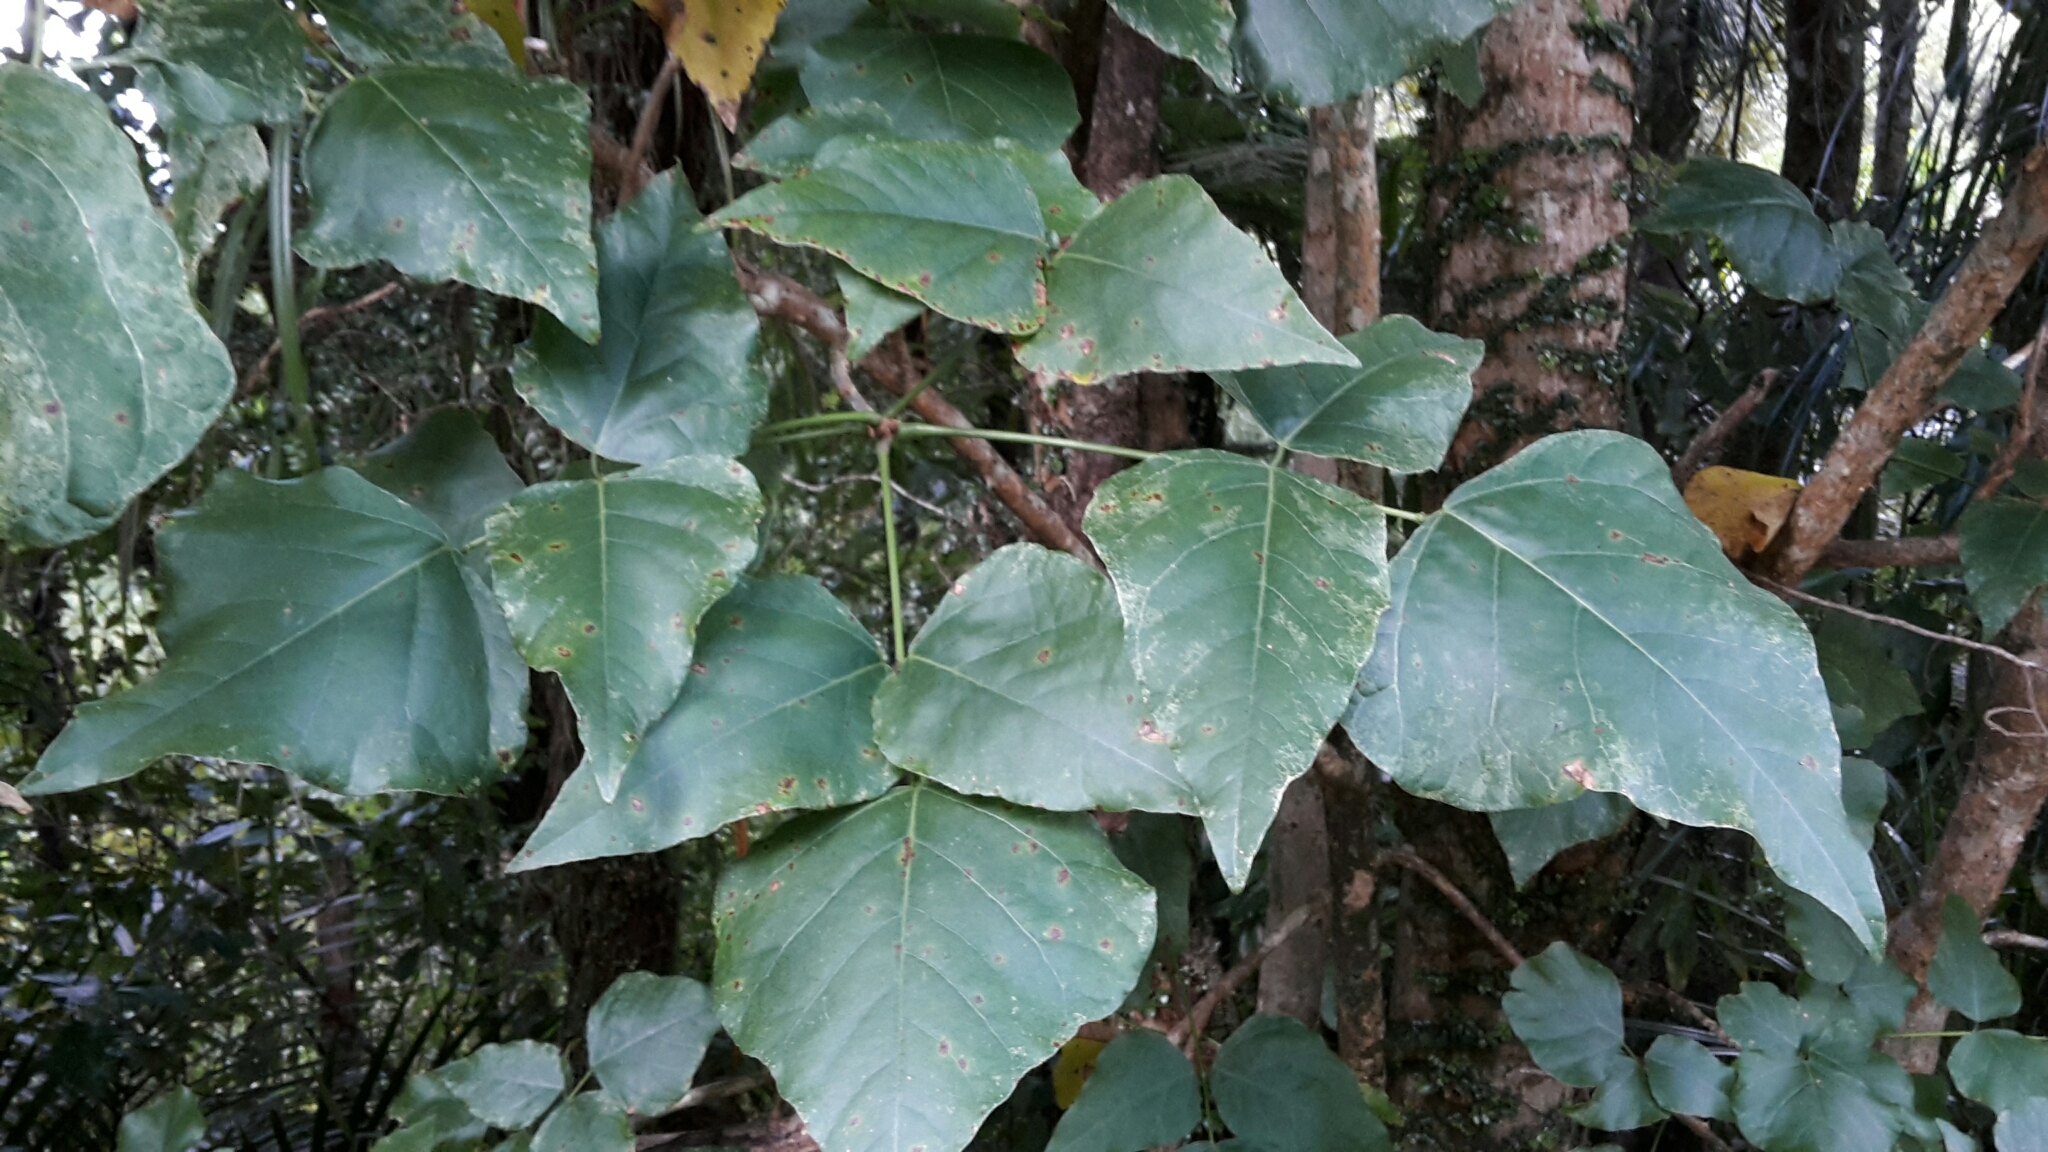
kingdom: Plantae
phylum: Tracheophyta
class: Magnoliopsida
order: Fabales
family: Fabaceae
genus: Erythrina
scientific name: Erythrina sykesii
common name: Coraltree
